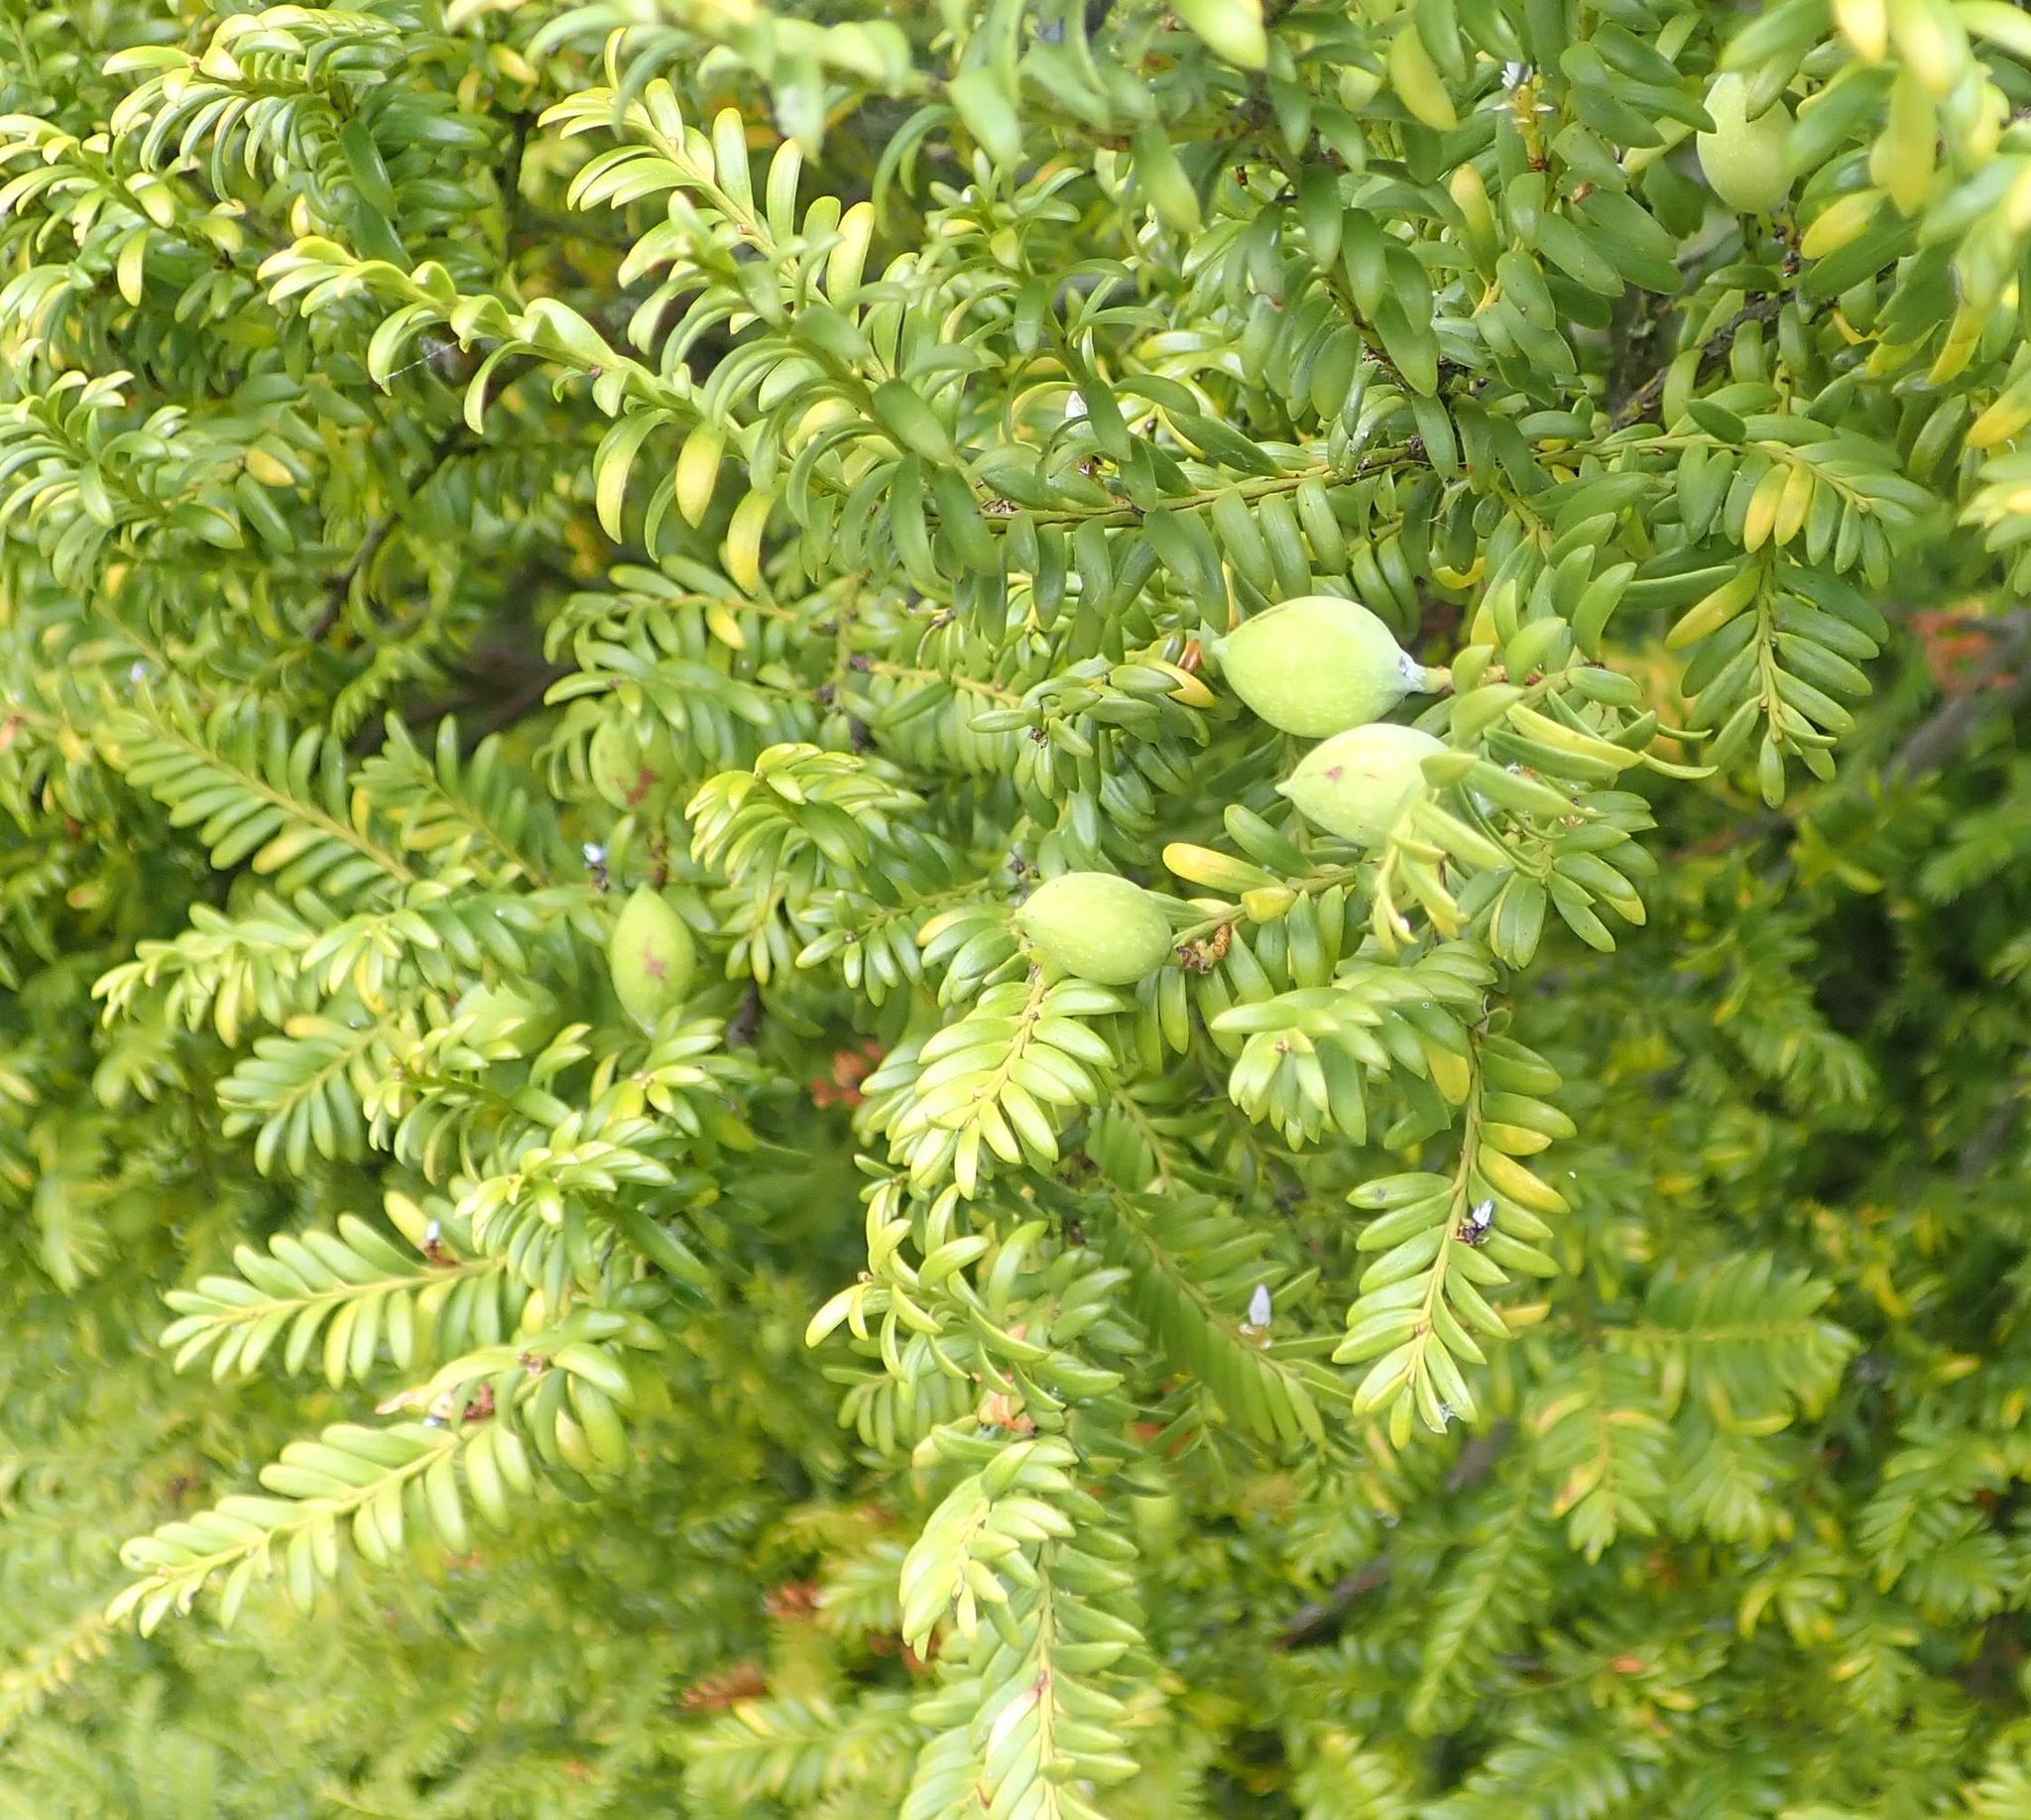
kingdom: Plantae
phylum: Tracheophyta
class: Pinopsida
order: Pinales
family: Podocarpaceae
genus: Prumnopitys
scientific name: Prumnopitys ferruginea
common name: Brown pine
